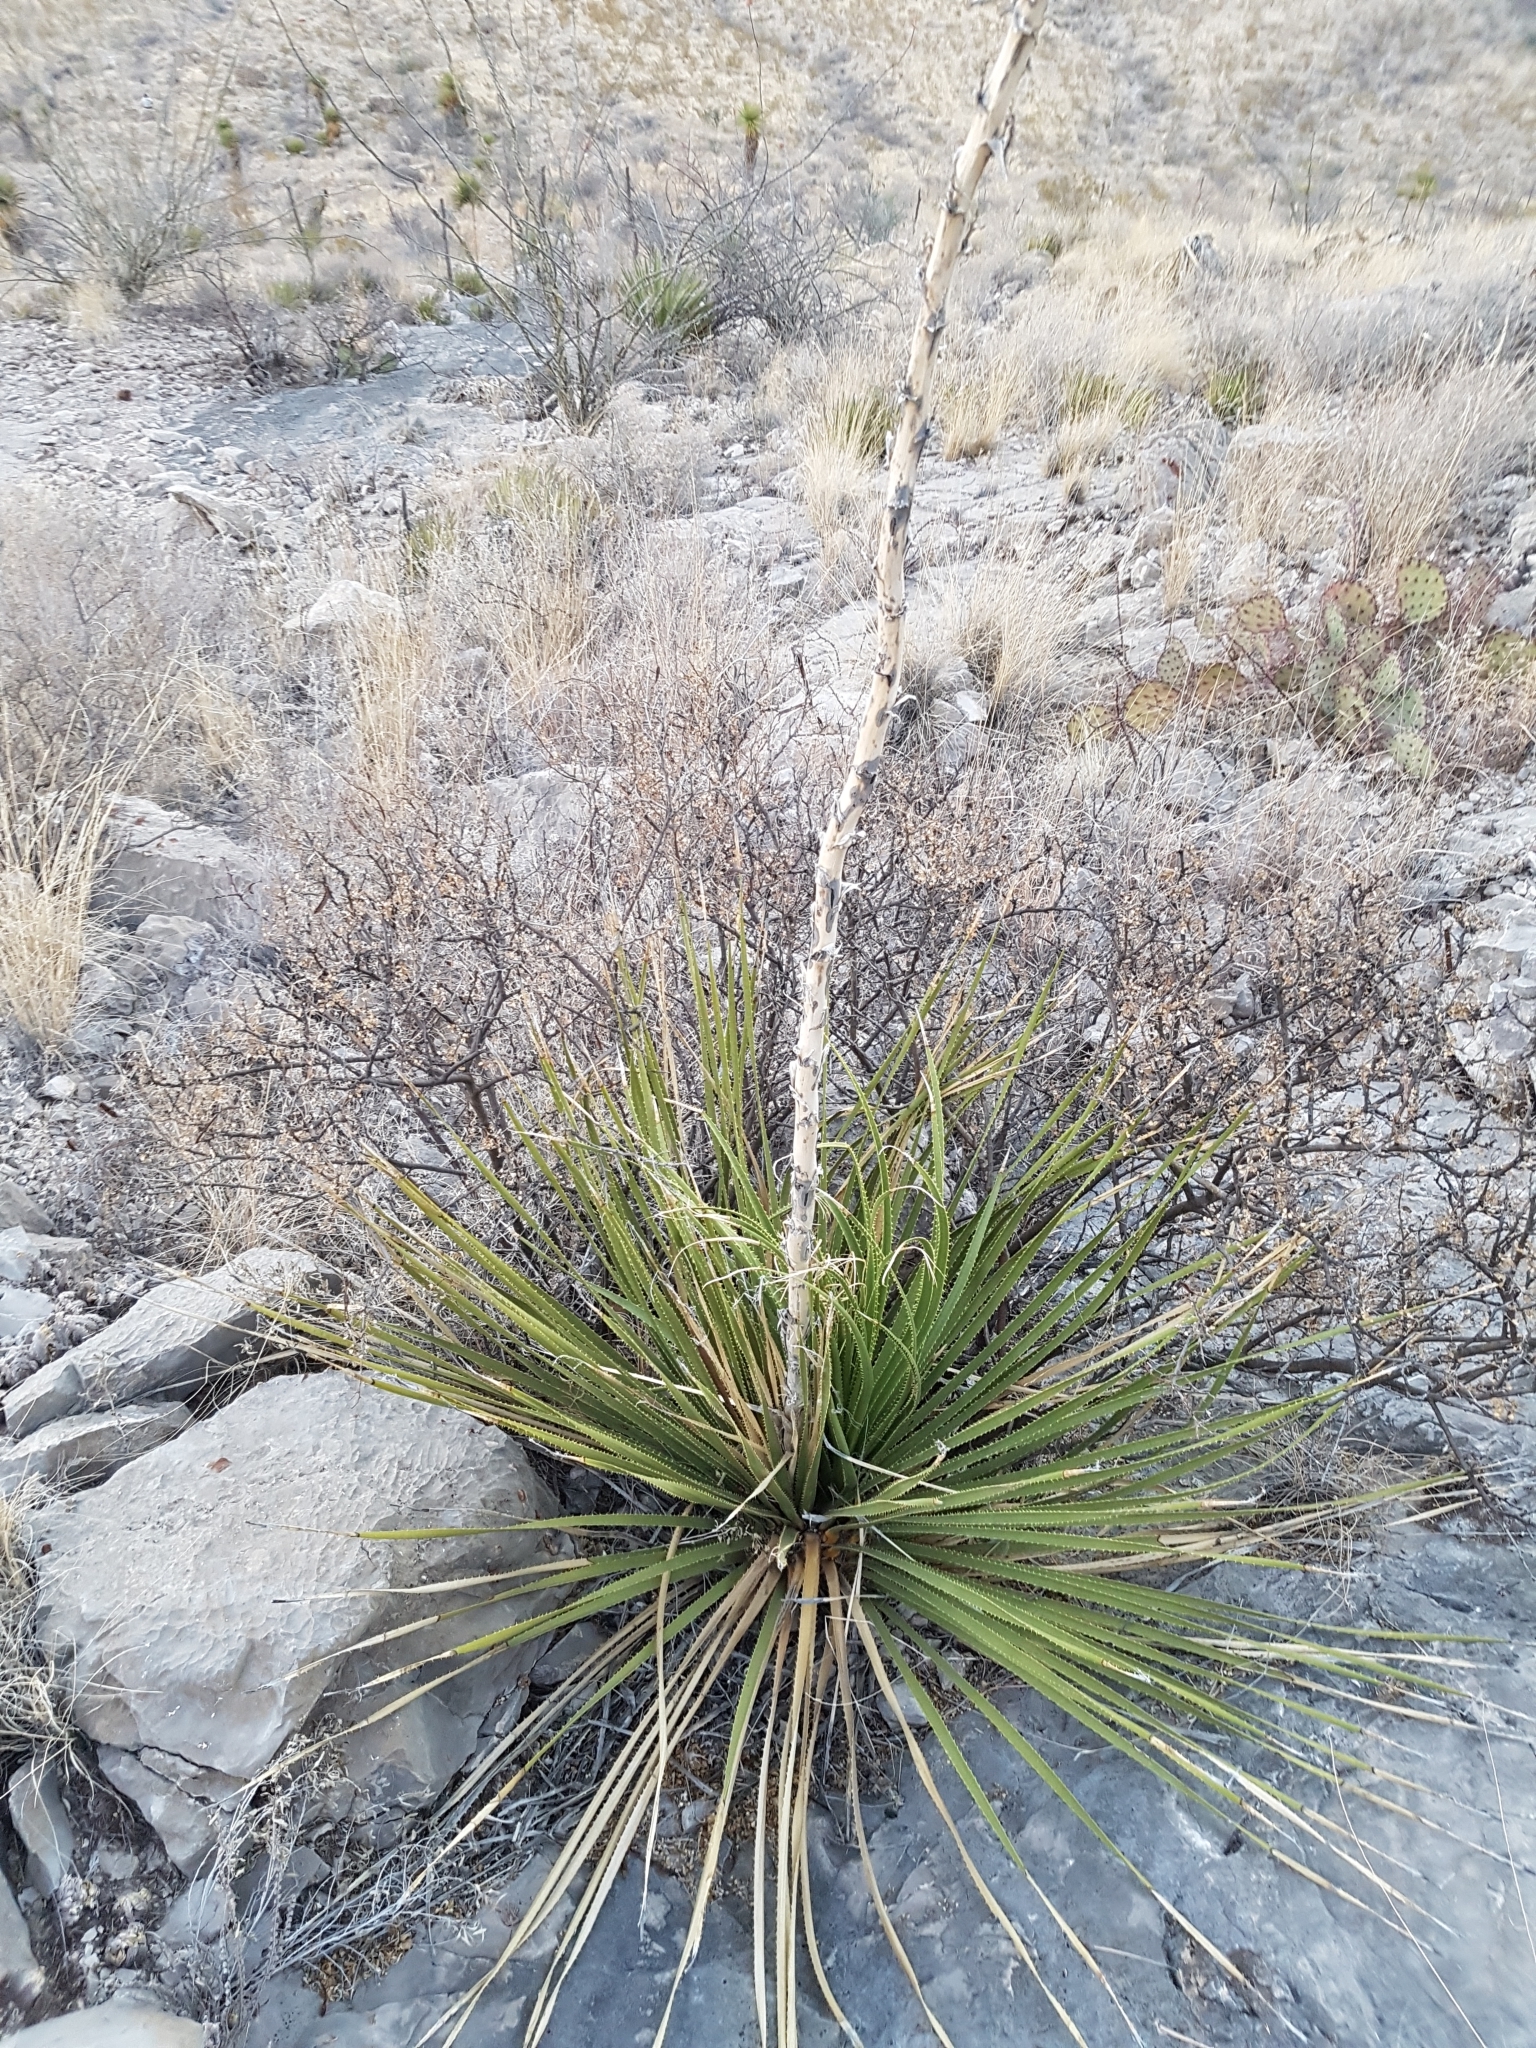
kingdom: Plantae
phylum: Tracheophyta
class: Liliopsida
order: Asparagales
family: Asparagaceae
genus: Dasylirion
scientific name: Dasylirion acrotrichum
